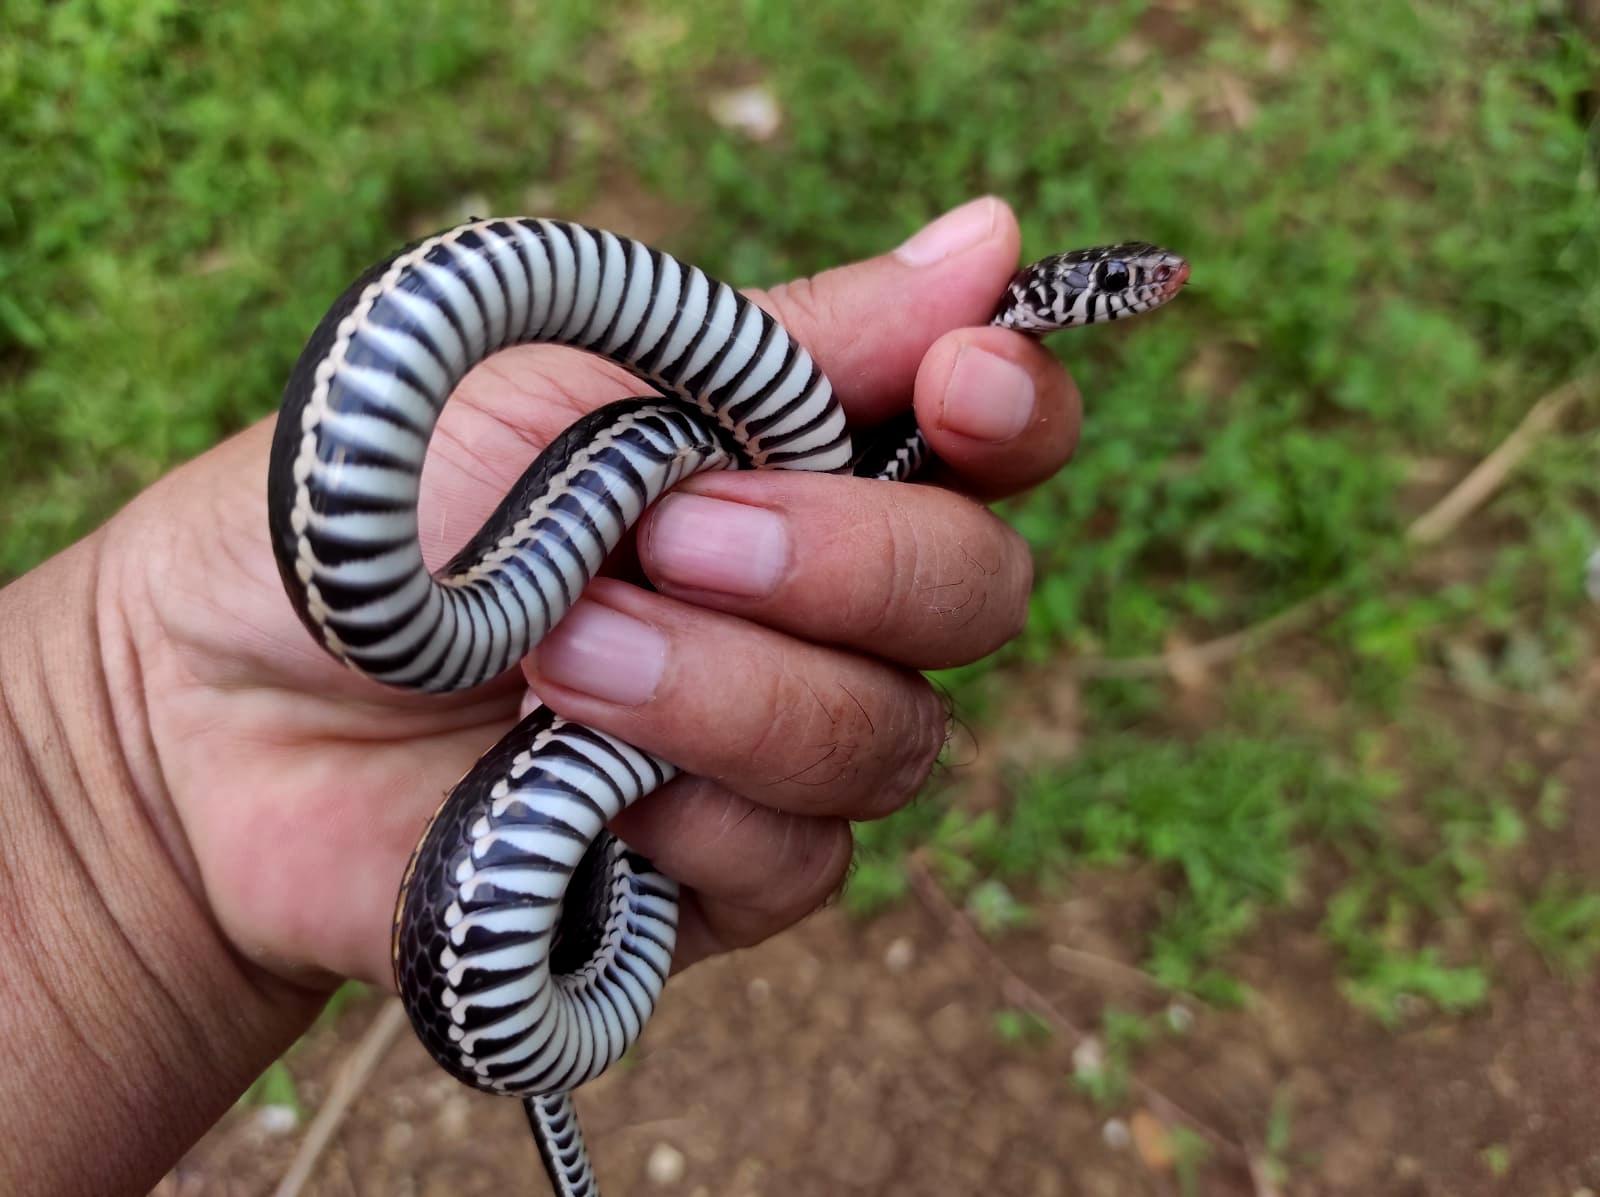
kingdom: Animalia
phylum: Chordata
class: Squamata
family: Colubridae
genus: Xenochrophis
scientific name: Xenochrophis vittatus
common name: Striped keelback
